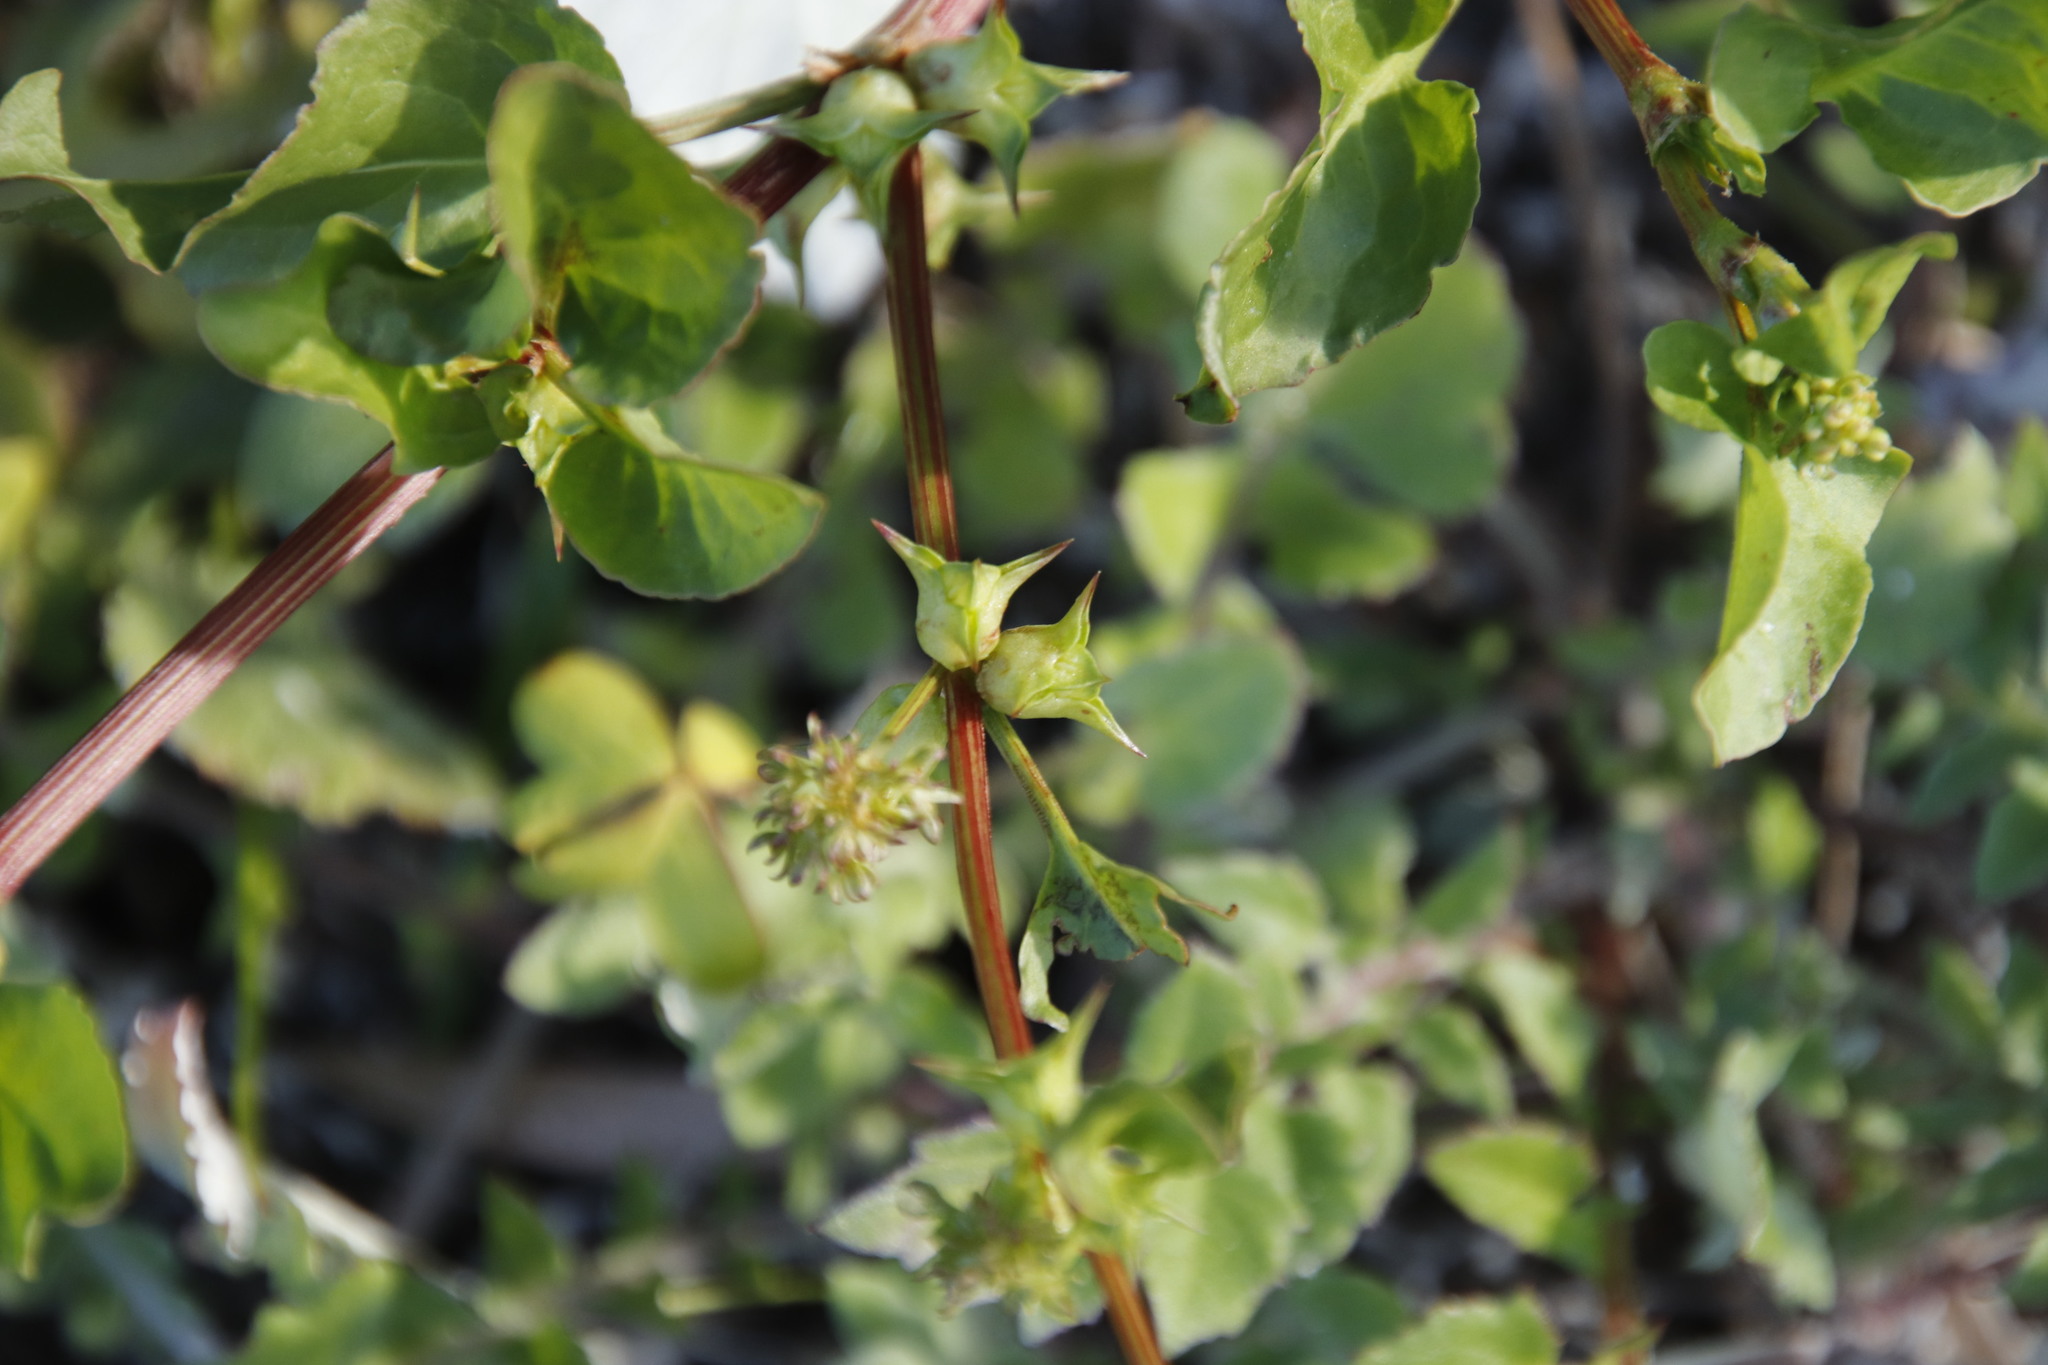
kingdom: Plantae
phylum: Tracheophyta
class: Magnoliopsida
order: Caryophyllales
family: Polygonaceae
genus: Rumex
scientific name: Rumex hypogaeus
